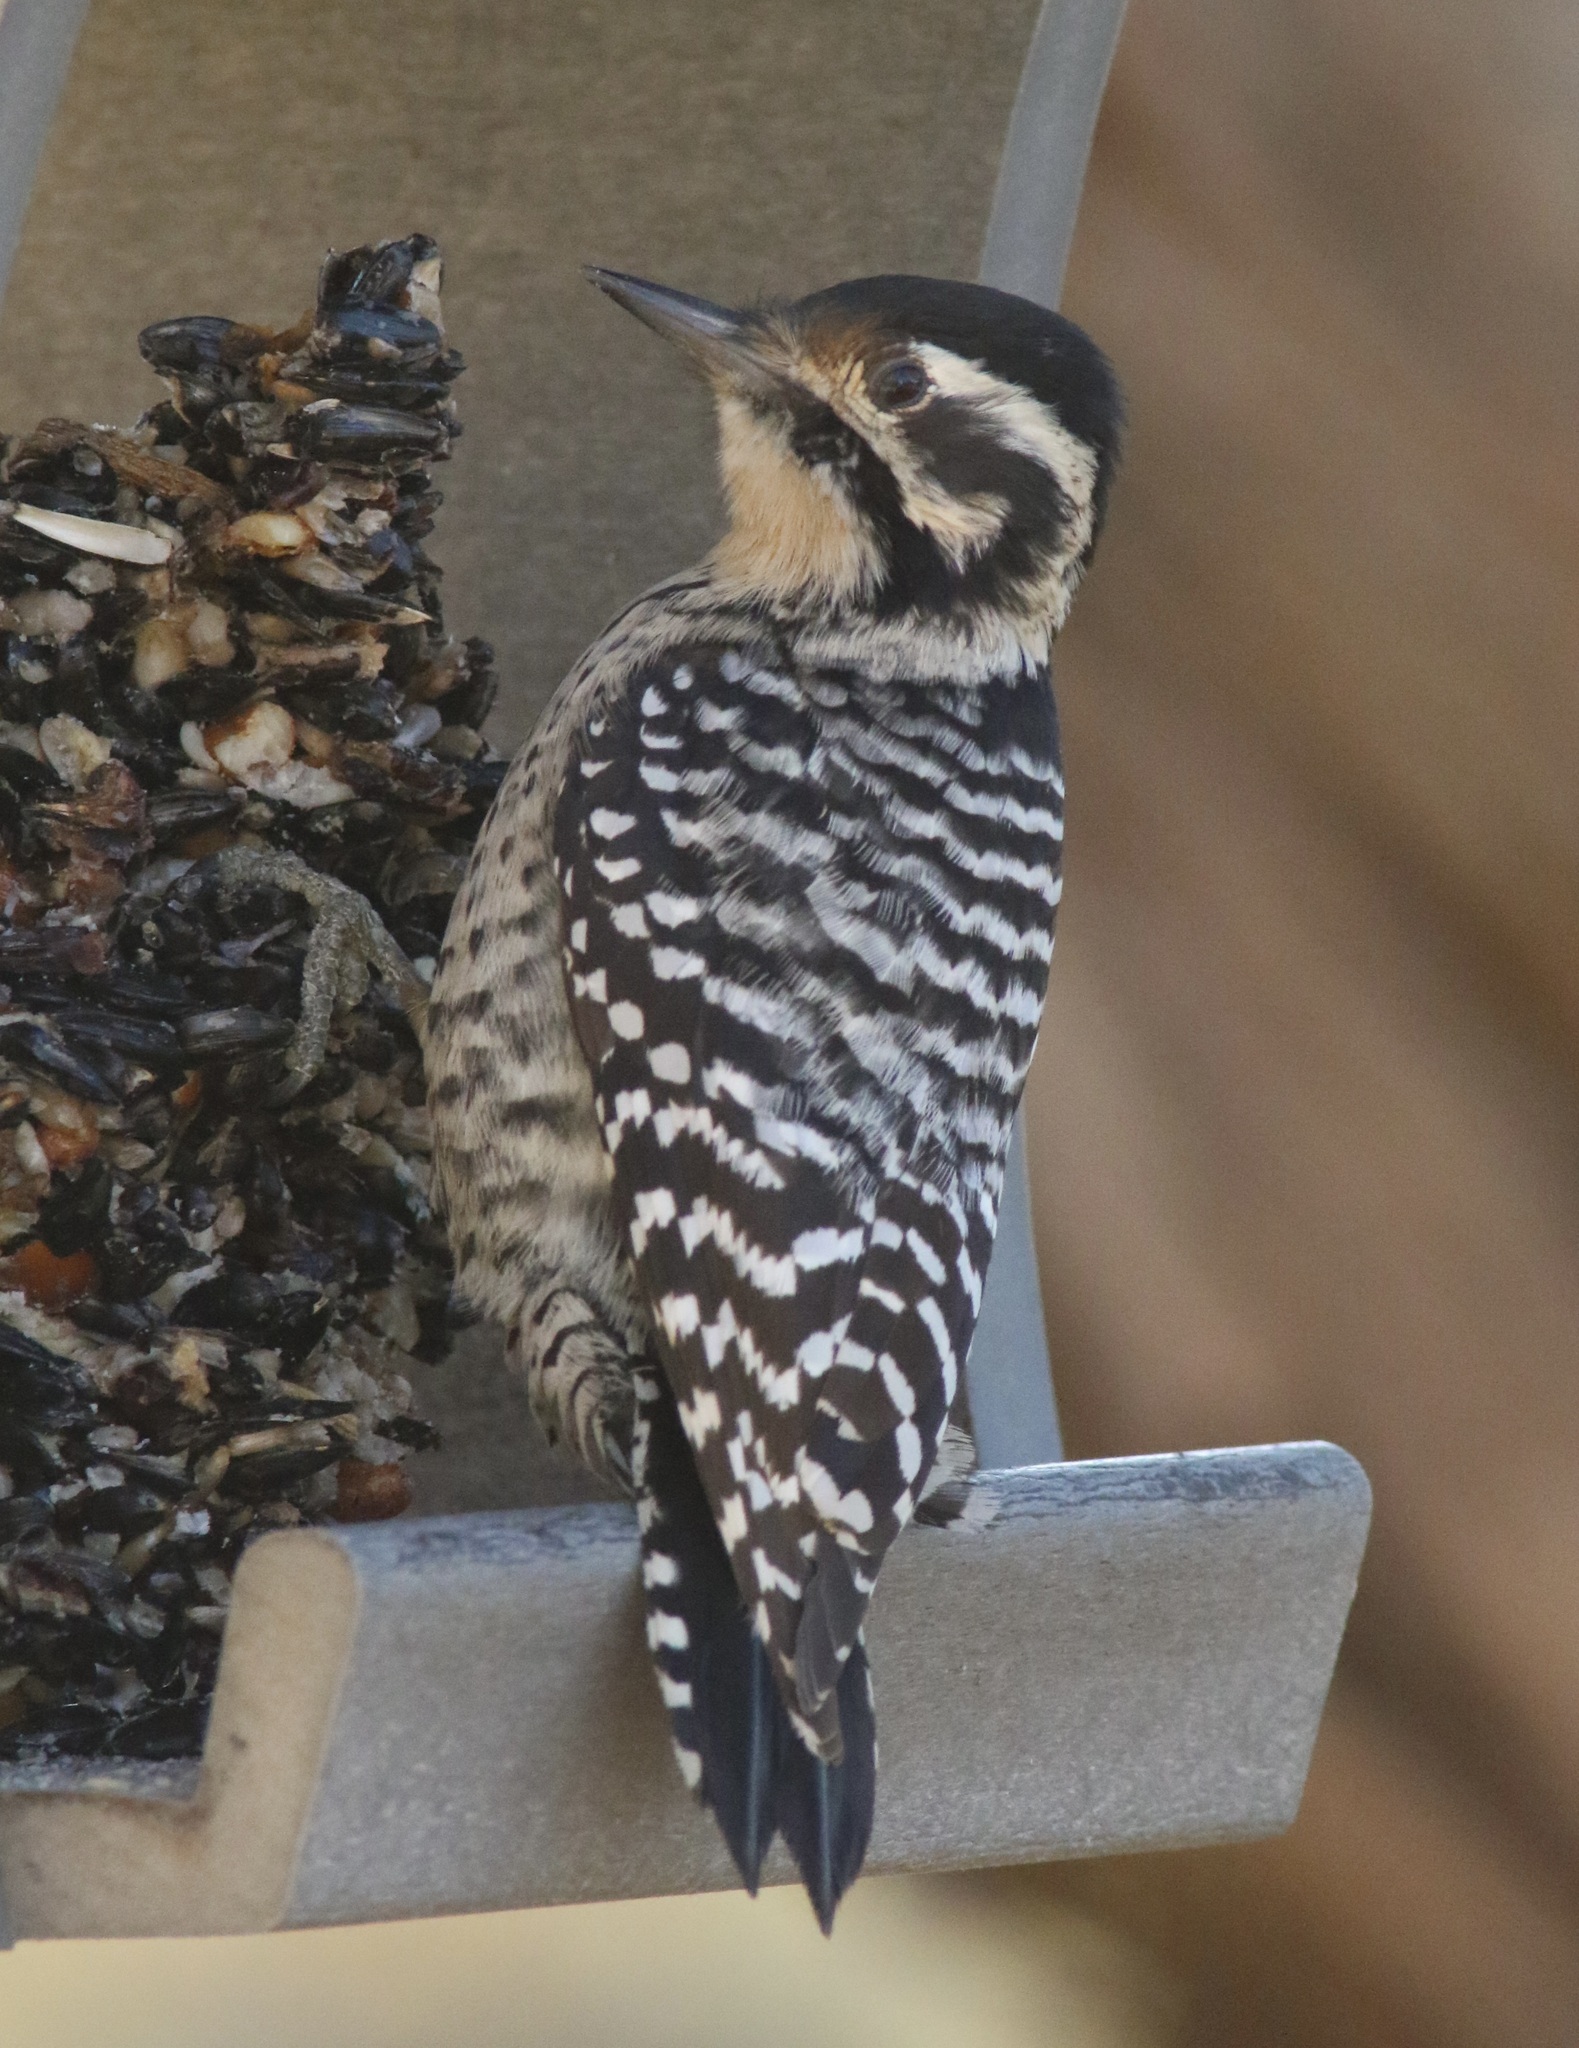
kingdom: Animalia
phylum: Chordata
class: Aves
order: Piciformes
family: Picidae
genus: Dryobates
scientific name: Dryobates scalaris
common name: Ladder-backed woodpecker
